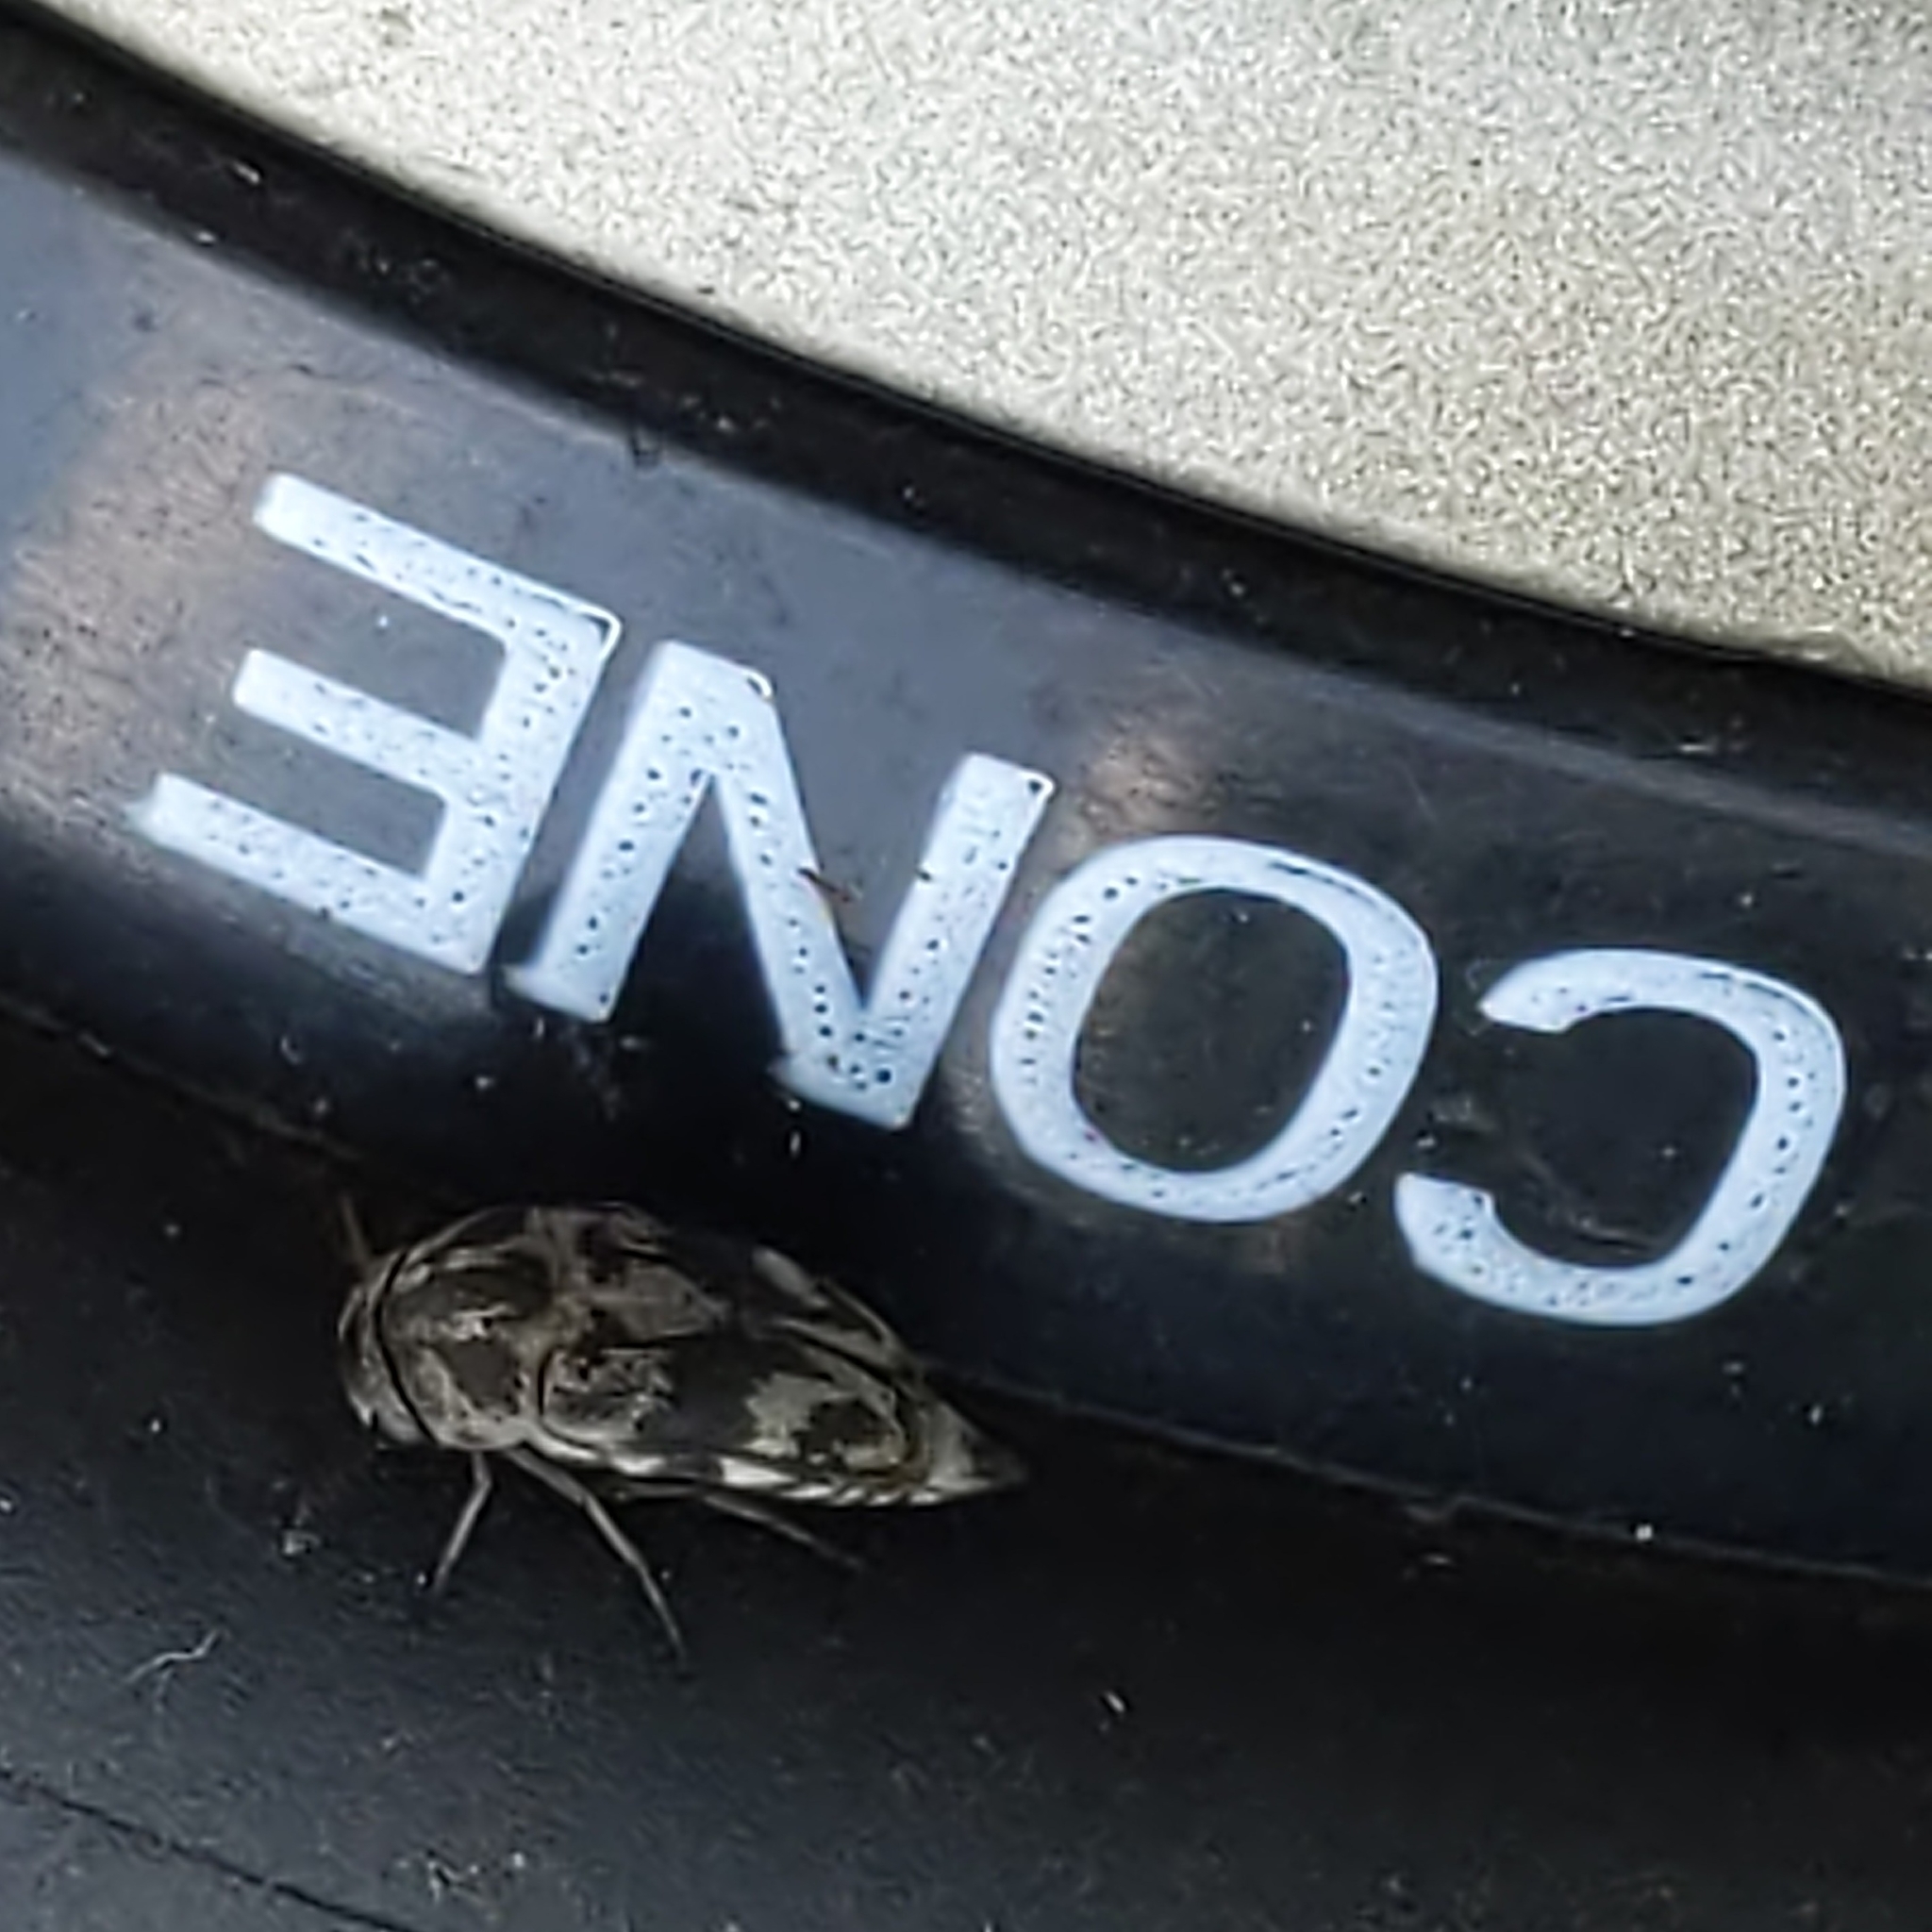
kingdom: Animalia
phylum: Arthropoda
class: Insecta
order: Coleoptera
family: Mordellidae
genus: Tomoxia
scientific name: Tomoxia inclusa
